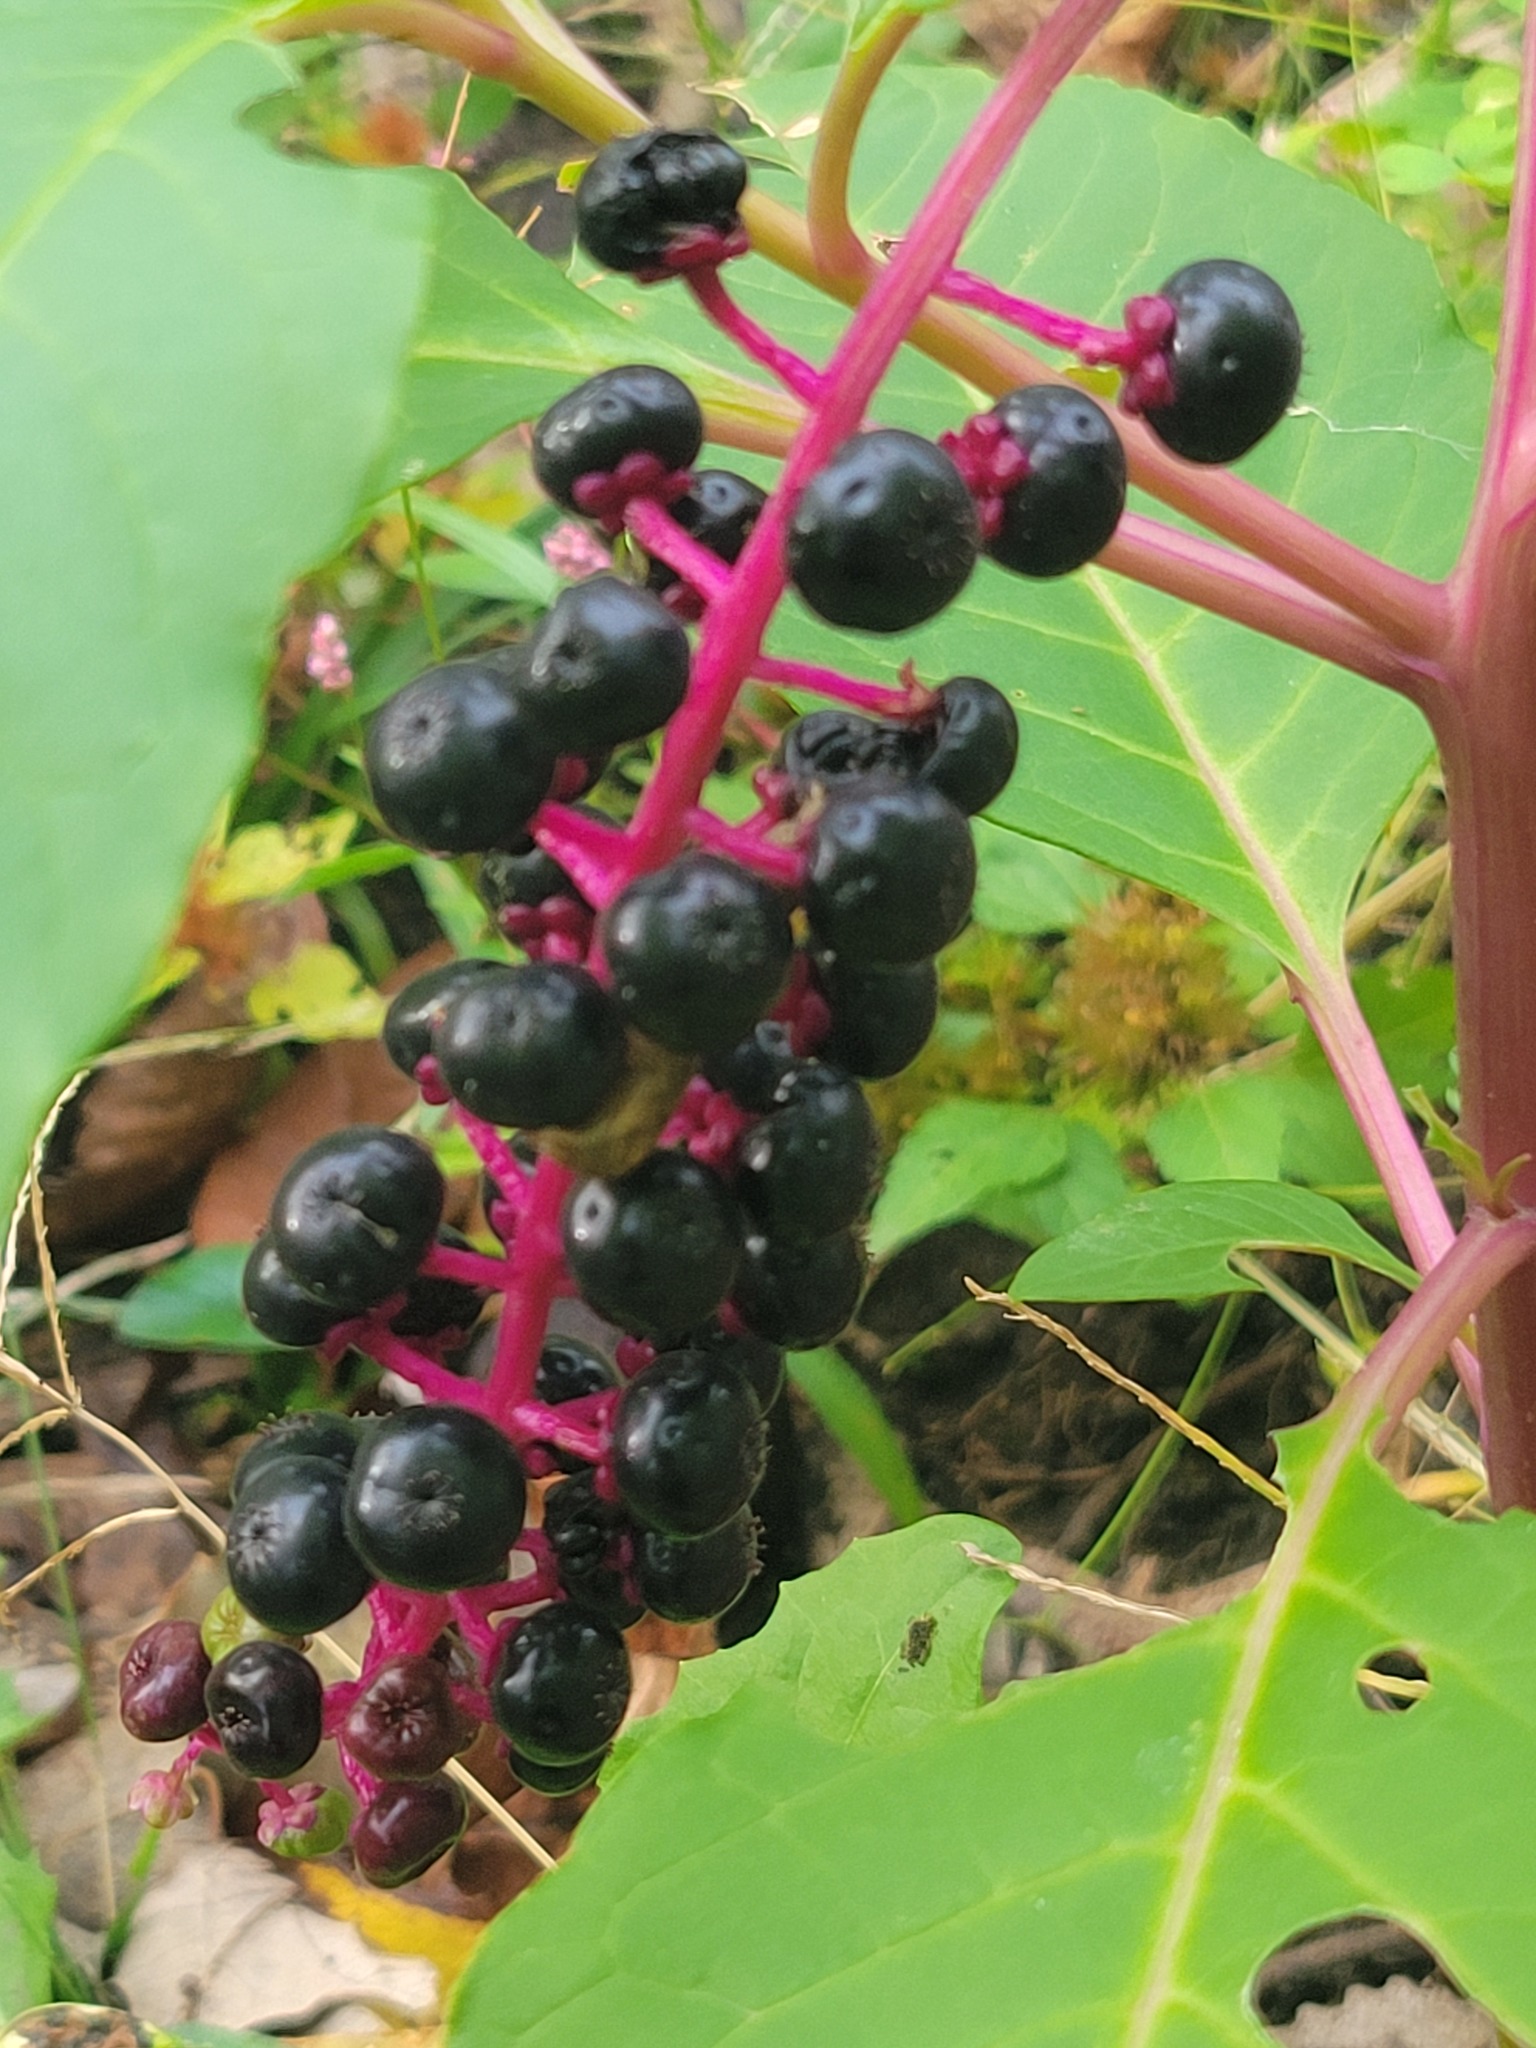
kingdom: Plantae
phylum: Tracheophyta
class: Magnoliopsida
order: Caryophyllales
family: Phytolaccaceae
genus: Phytolacca
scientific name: Phytolacca americana
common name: American pokeweed
